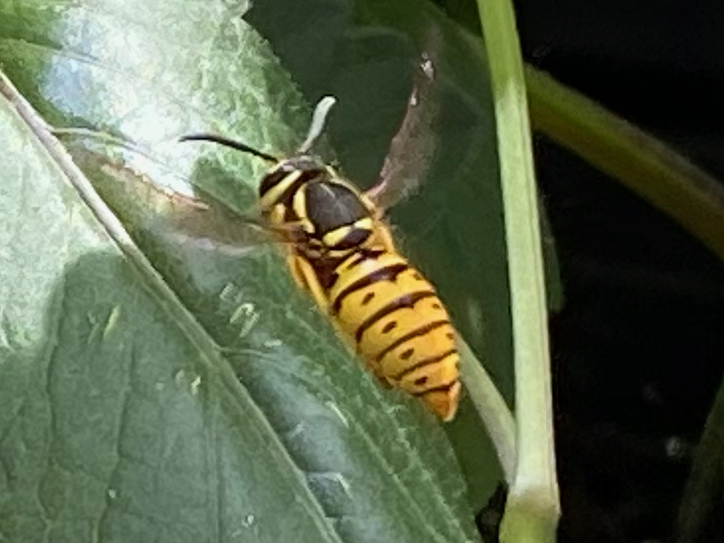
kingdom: Animalia
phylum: Arthropoda
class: Insecta
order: Hymenoptera
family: Vespidae
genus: Vespula
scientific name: Vespula maculifrons
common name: Eastern yellowjacket
